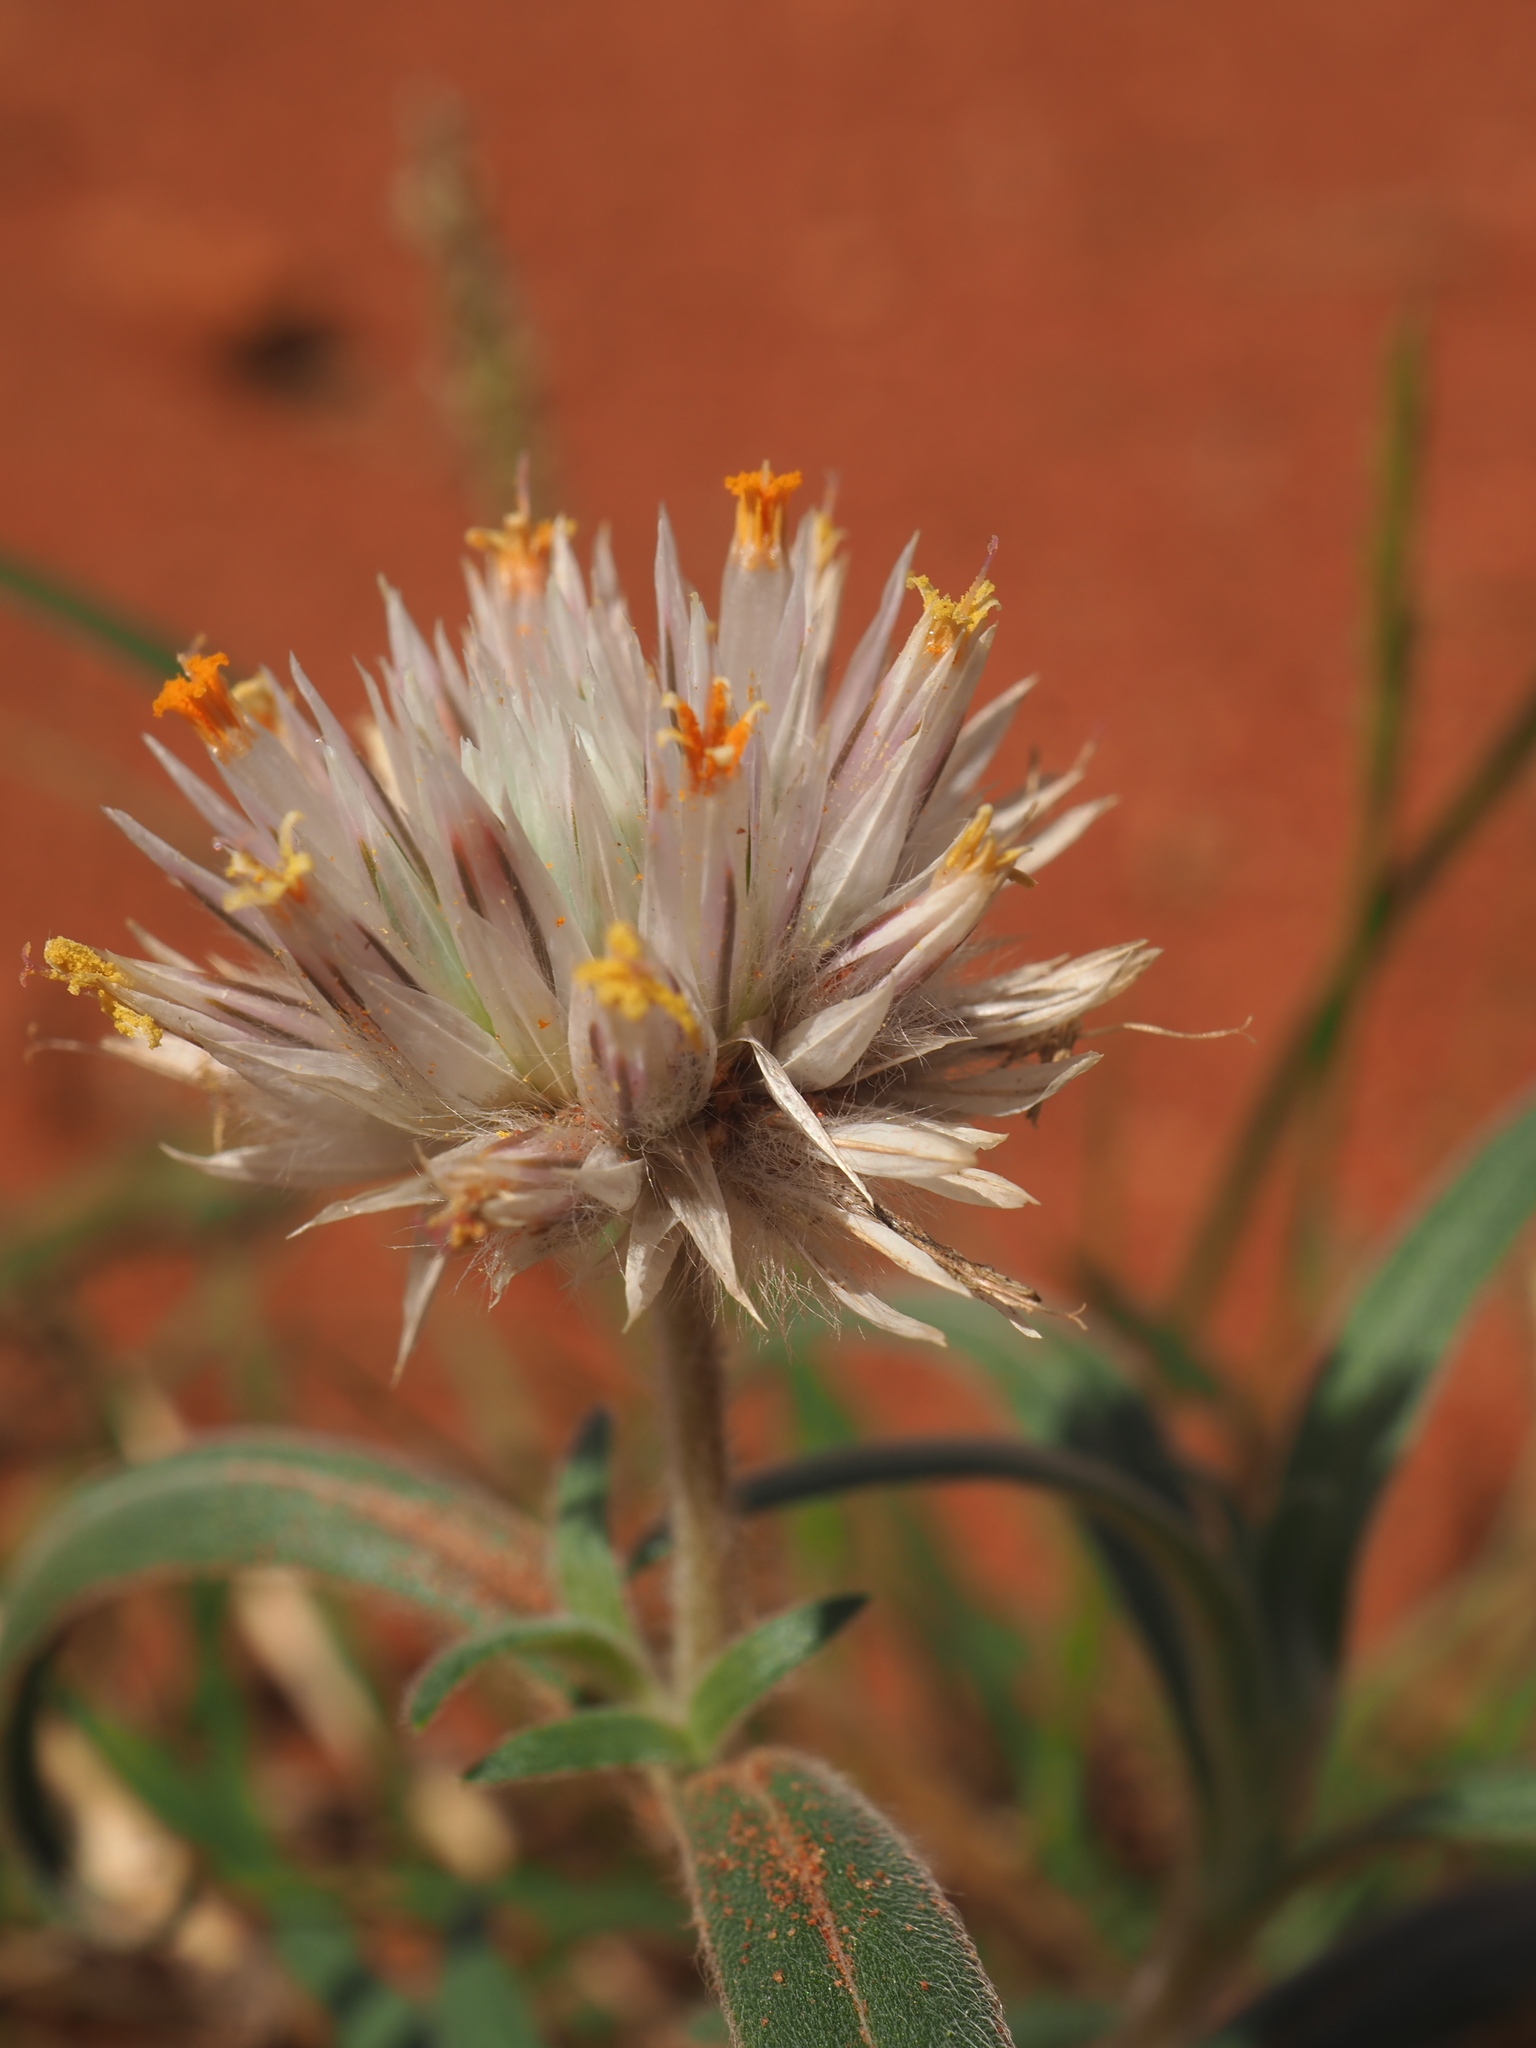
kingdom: Plantae
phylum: Tracheophyta
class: Magnoliopsida
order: Caryophyllales
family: Amaranthaceae
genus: Gomphrena
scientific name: Gomphrena kanisii
